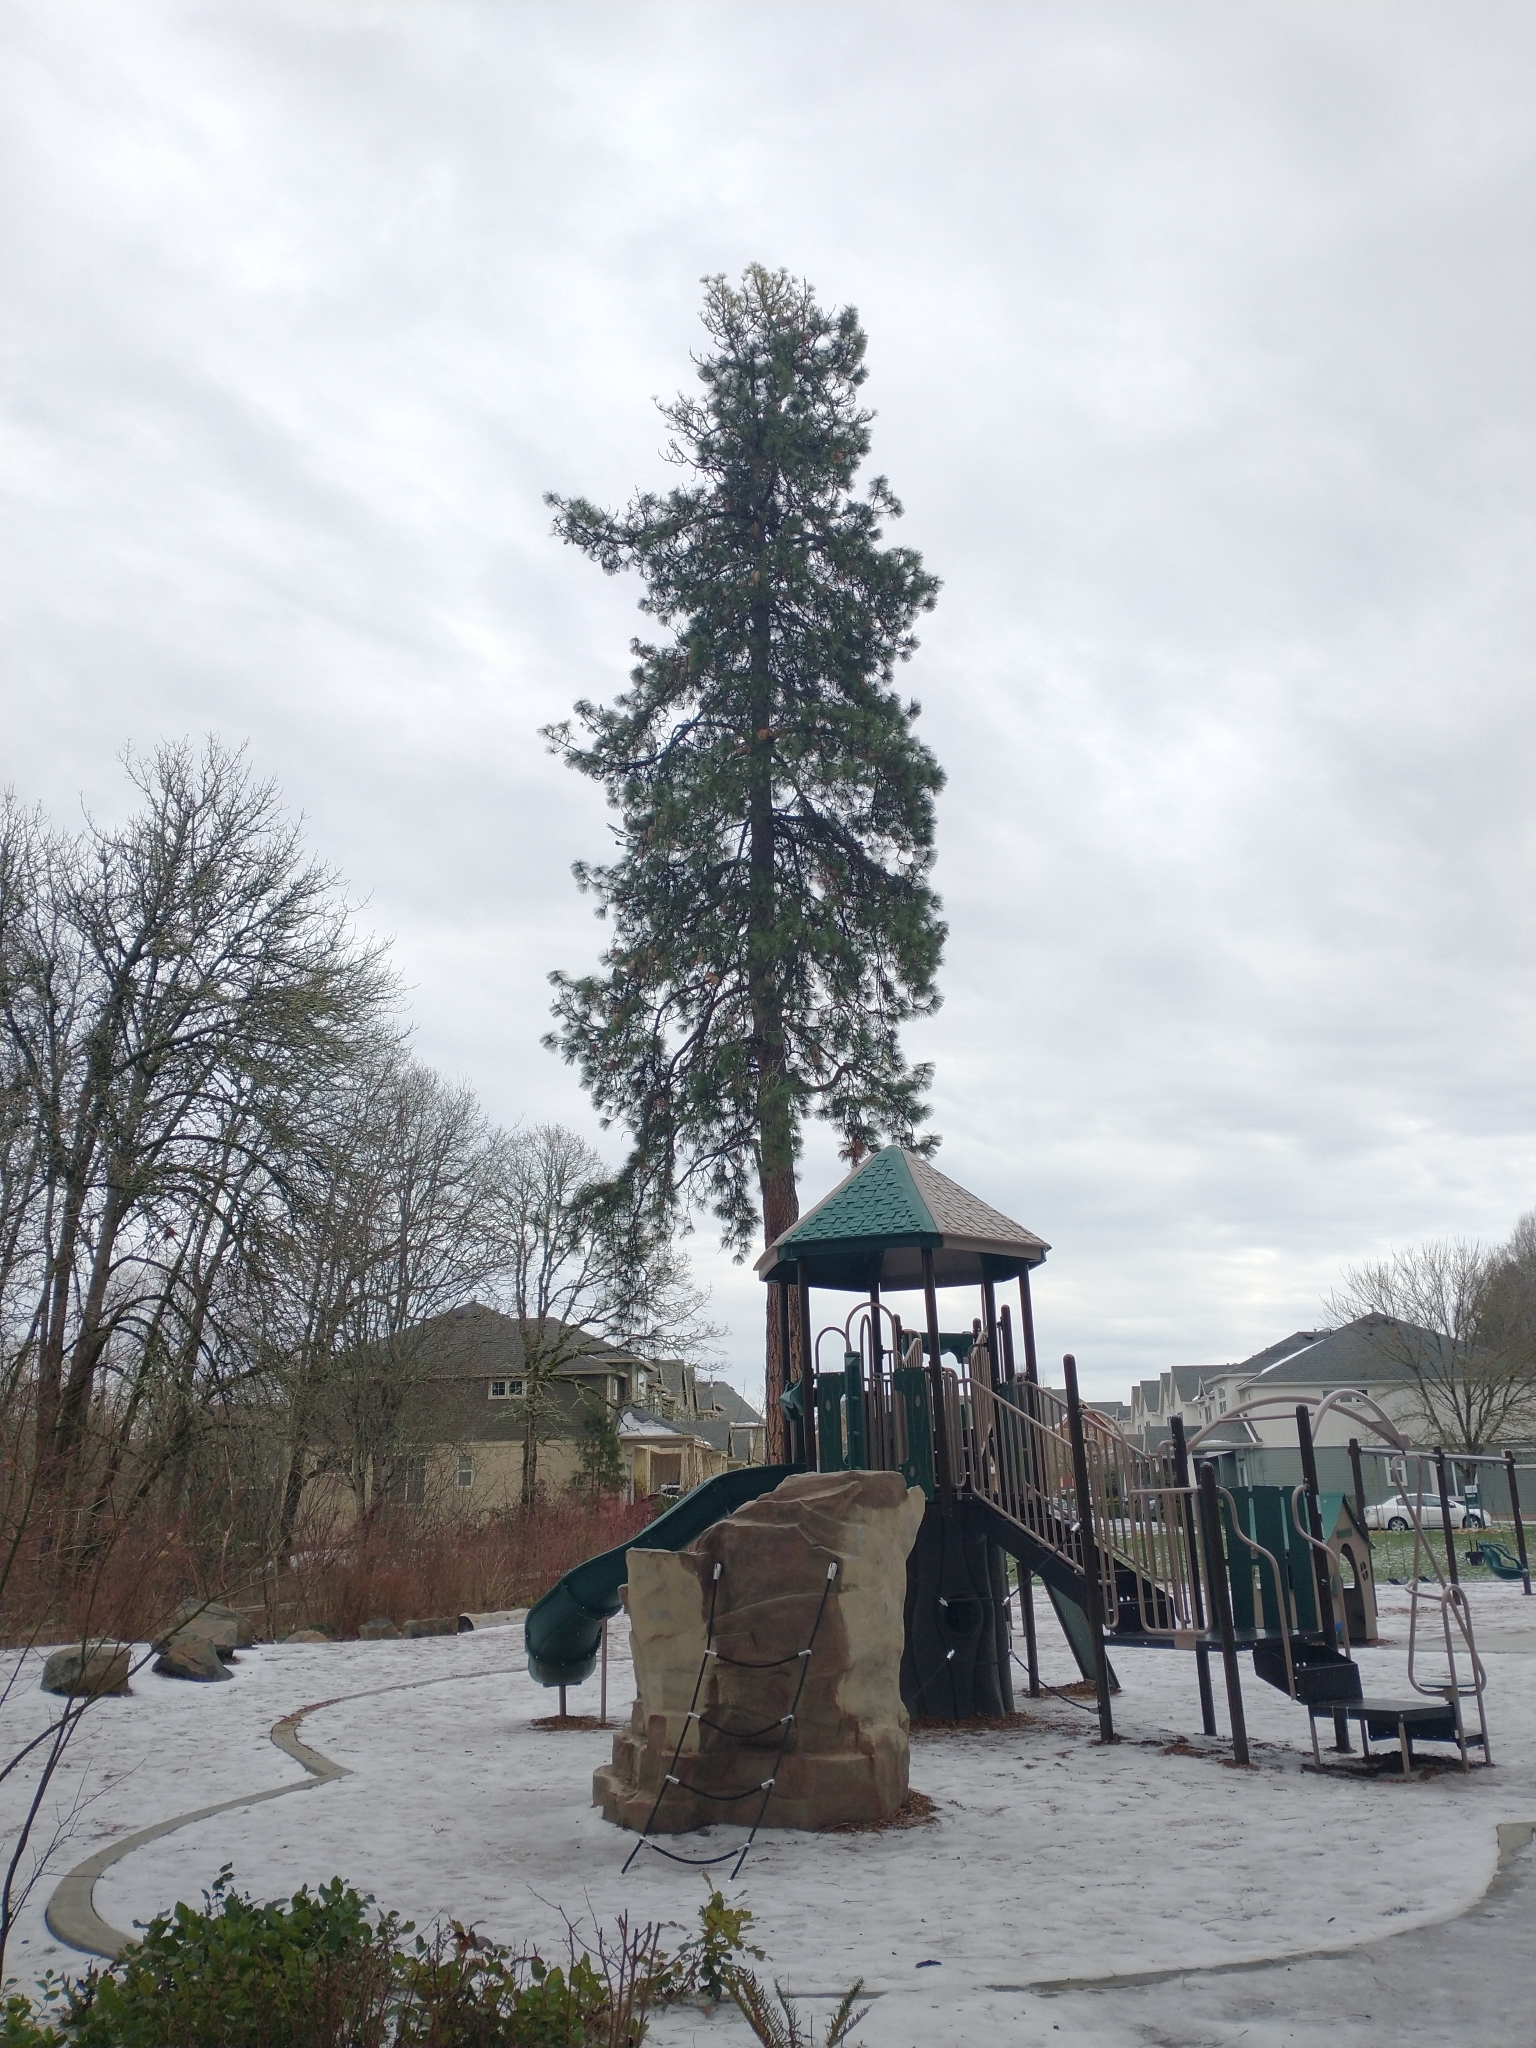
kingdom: Plantae
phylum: Tracheophyta
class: Pinopsida
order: Pinales
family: Pinaceae
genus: Pinus
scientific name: Pinus ponderosa
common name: Western yellow-pine
